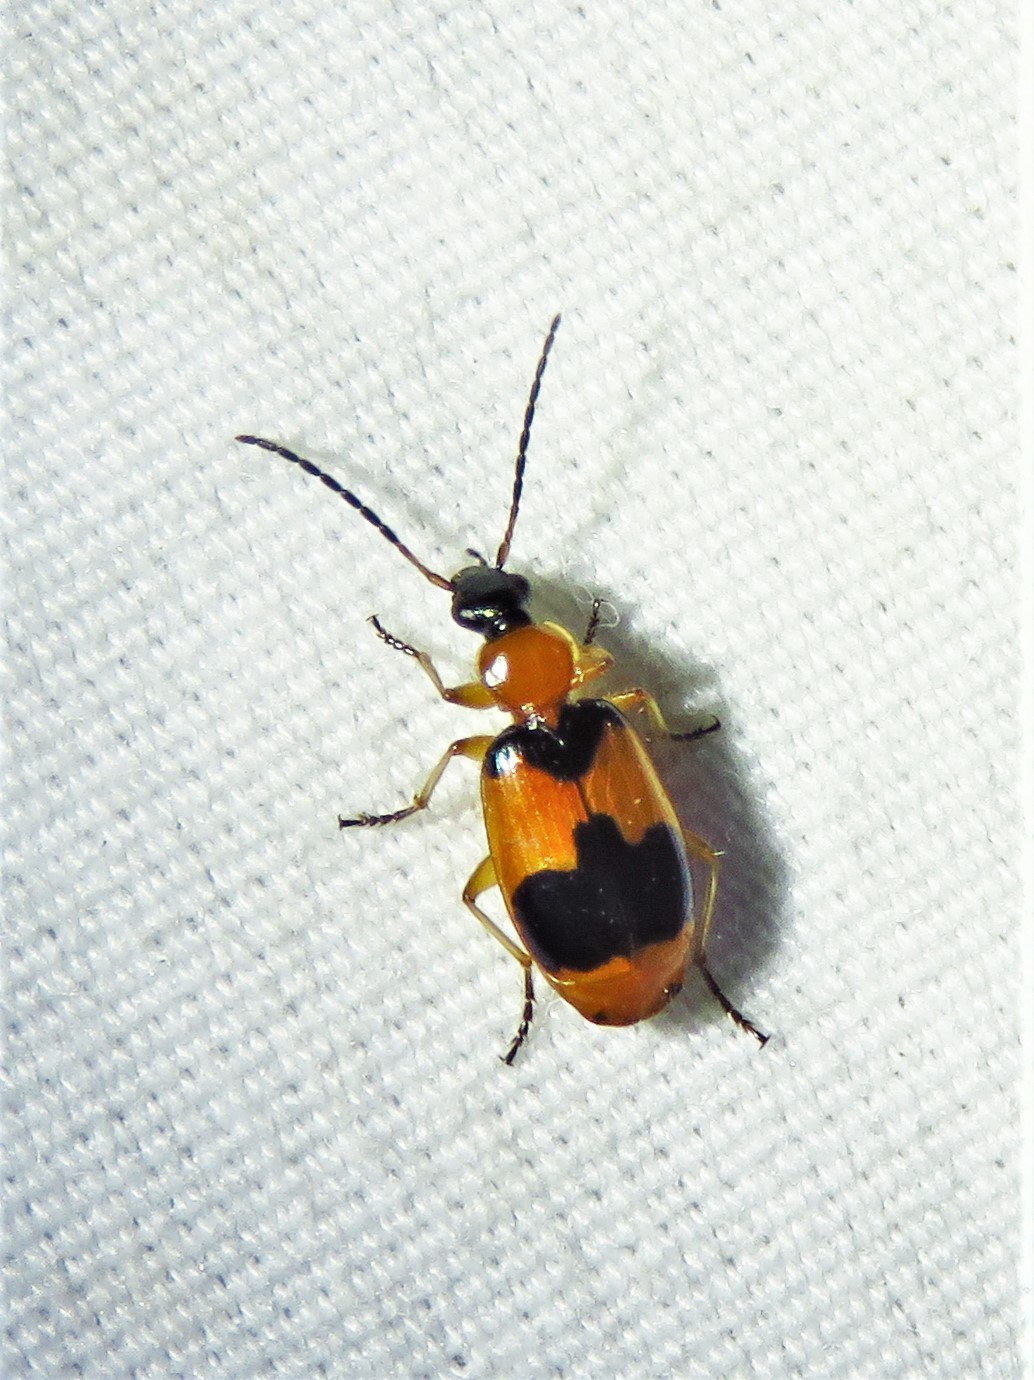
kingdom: Animalia
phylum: Arthropoda
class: Insecta
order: Coleoptera
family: Carabidae
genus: Lebia
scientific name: Lebia pulchella
